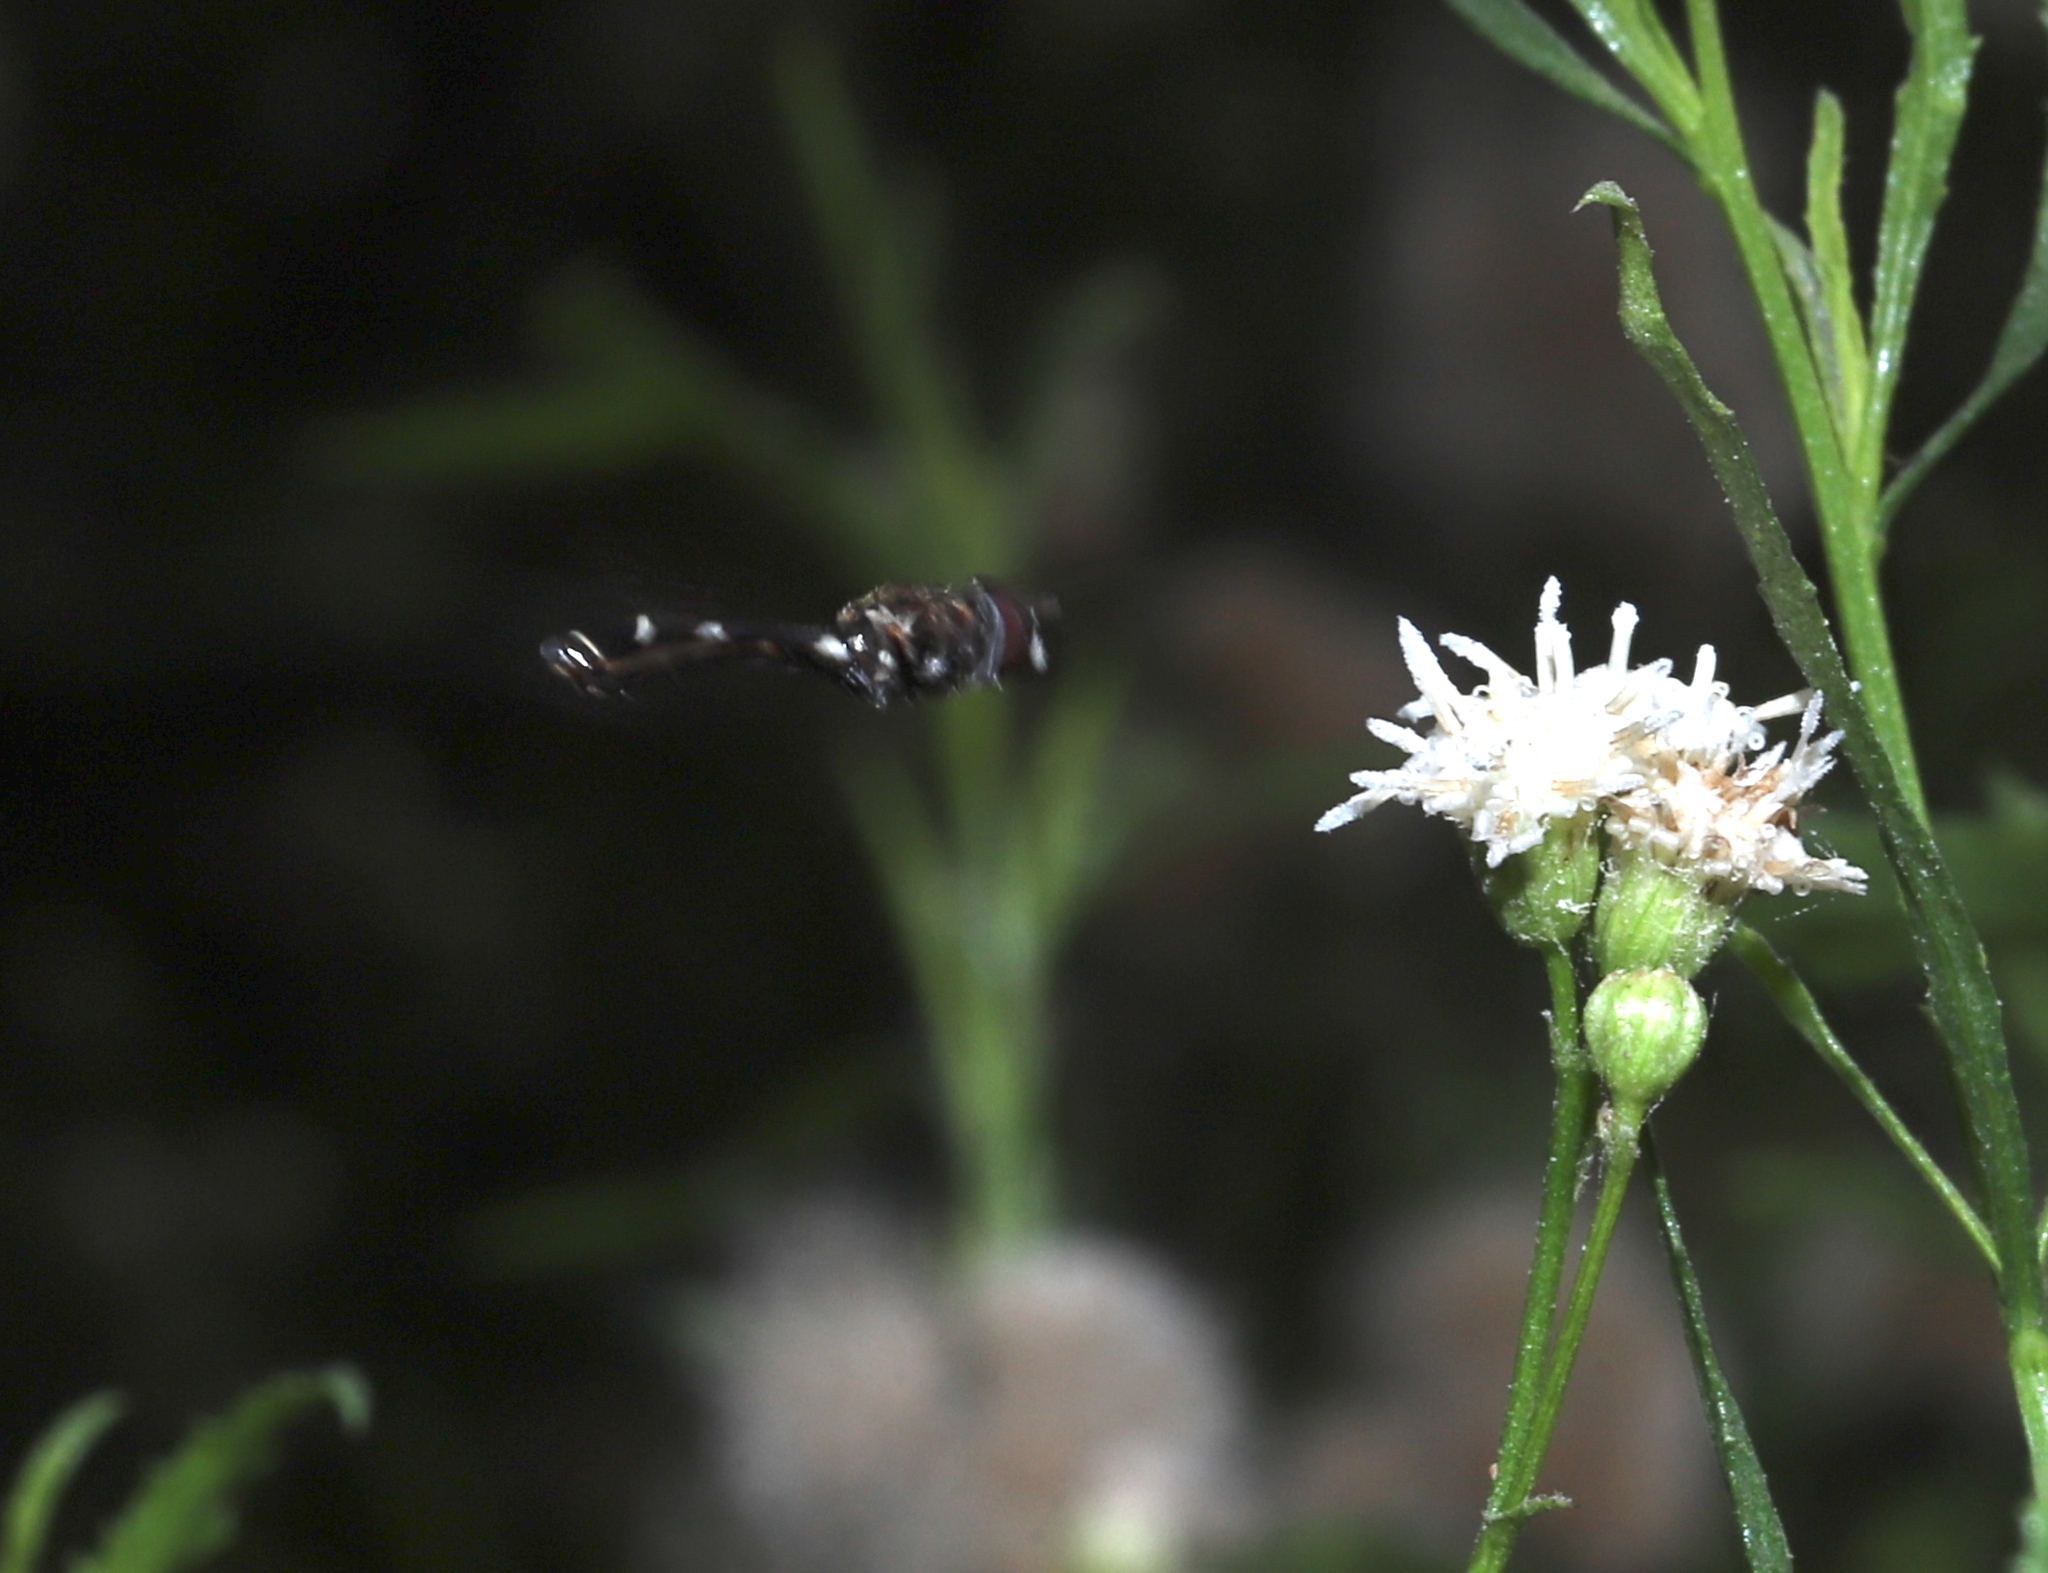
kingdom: Animalia
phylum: Arthropoda
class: Insecta
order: Diptera
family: Syrphidae
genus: Dioprosopa
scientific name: Dioprosopa clavatus
